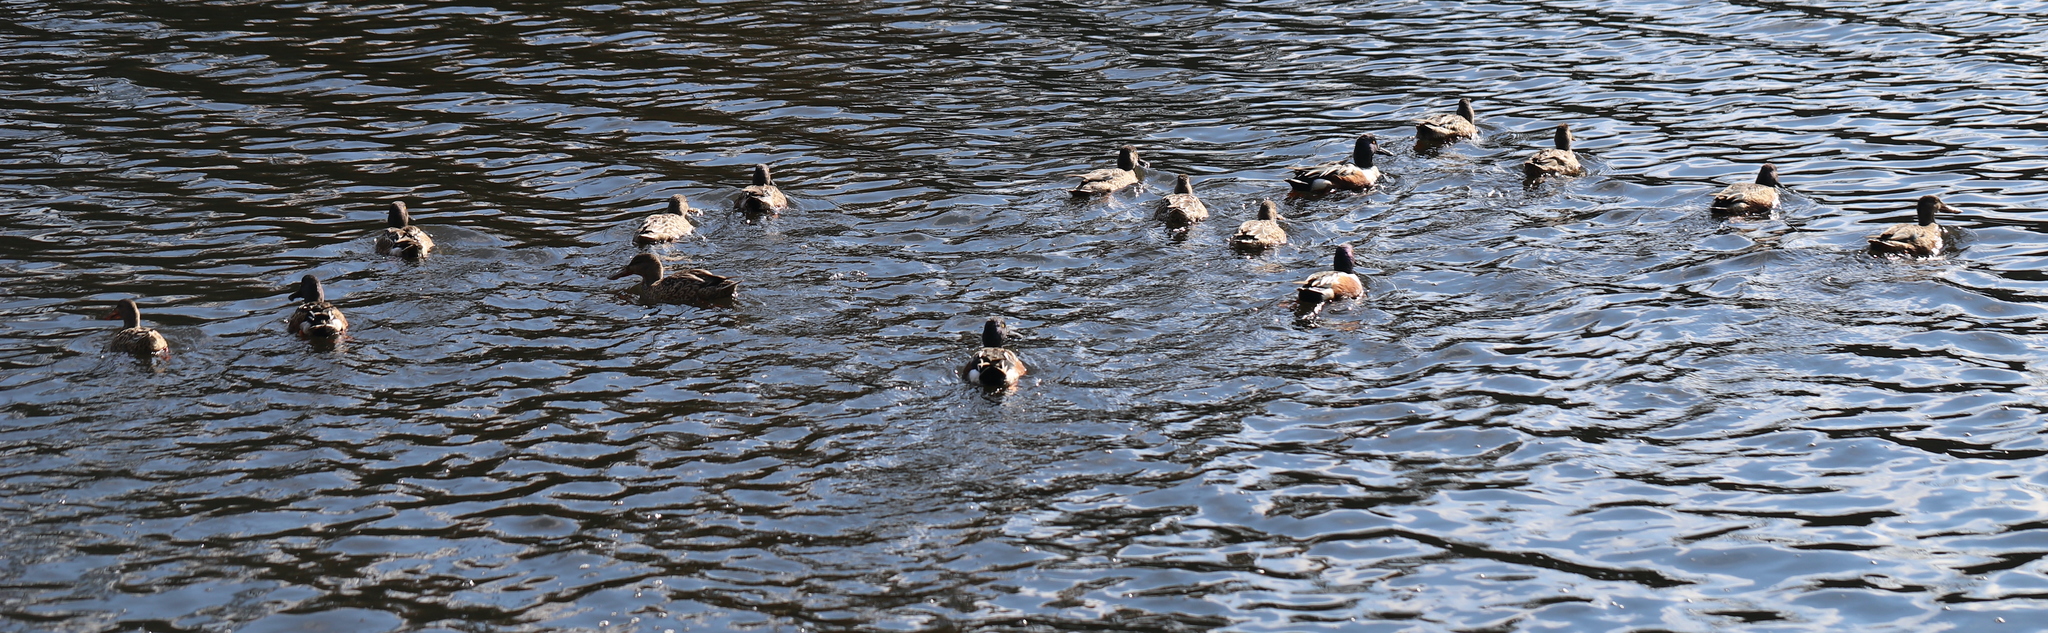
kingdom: Animalia
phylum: Chordata
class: Aves
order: Anseriformes
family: Anatidae
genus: Spatula
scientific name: Spatula clypeata
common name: Northern shoveler
